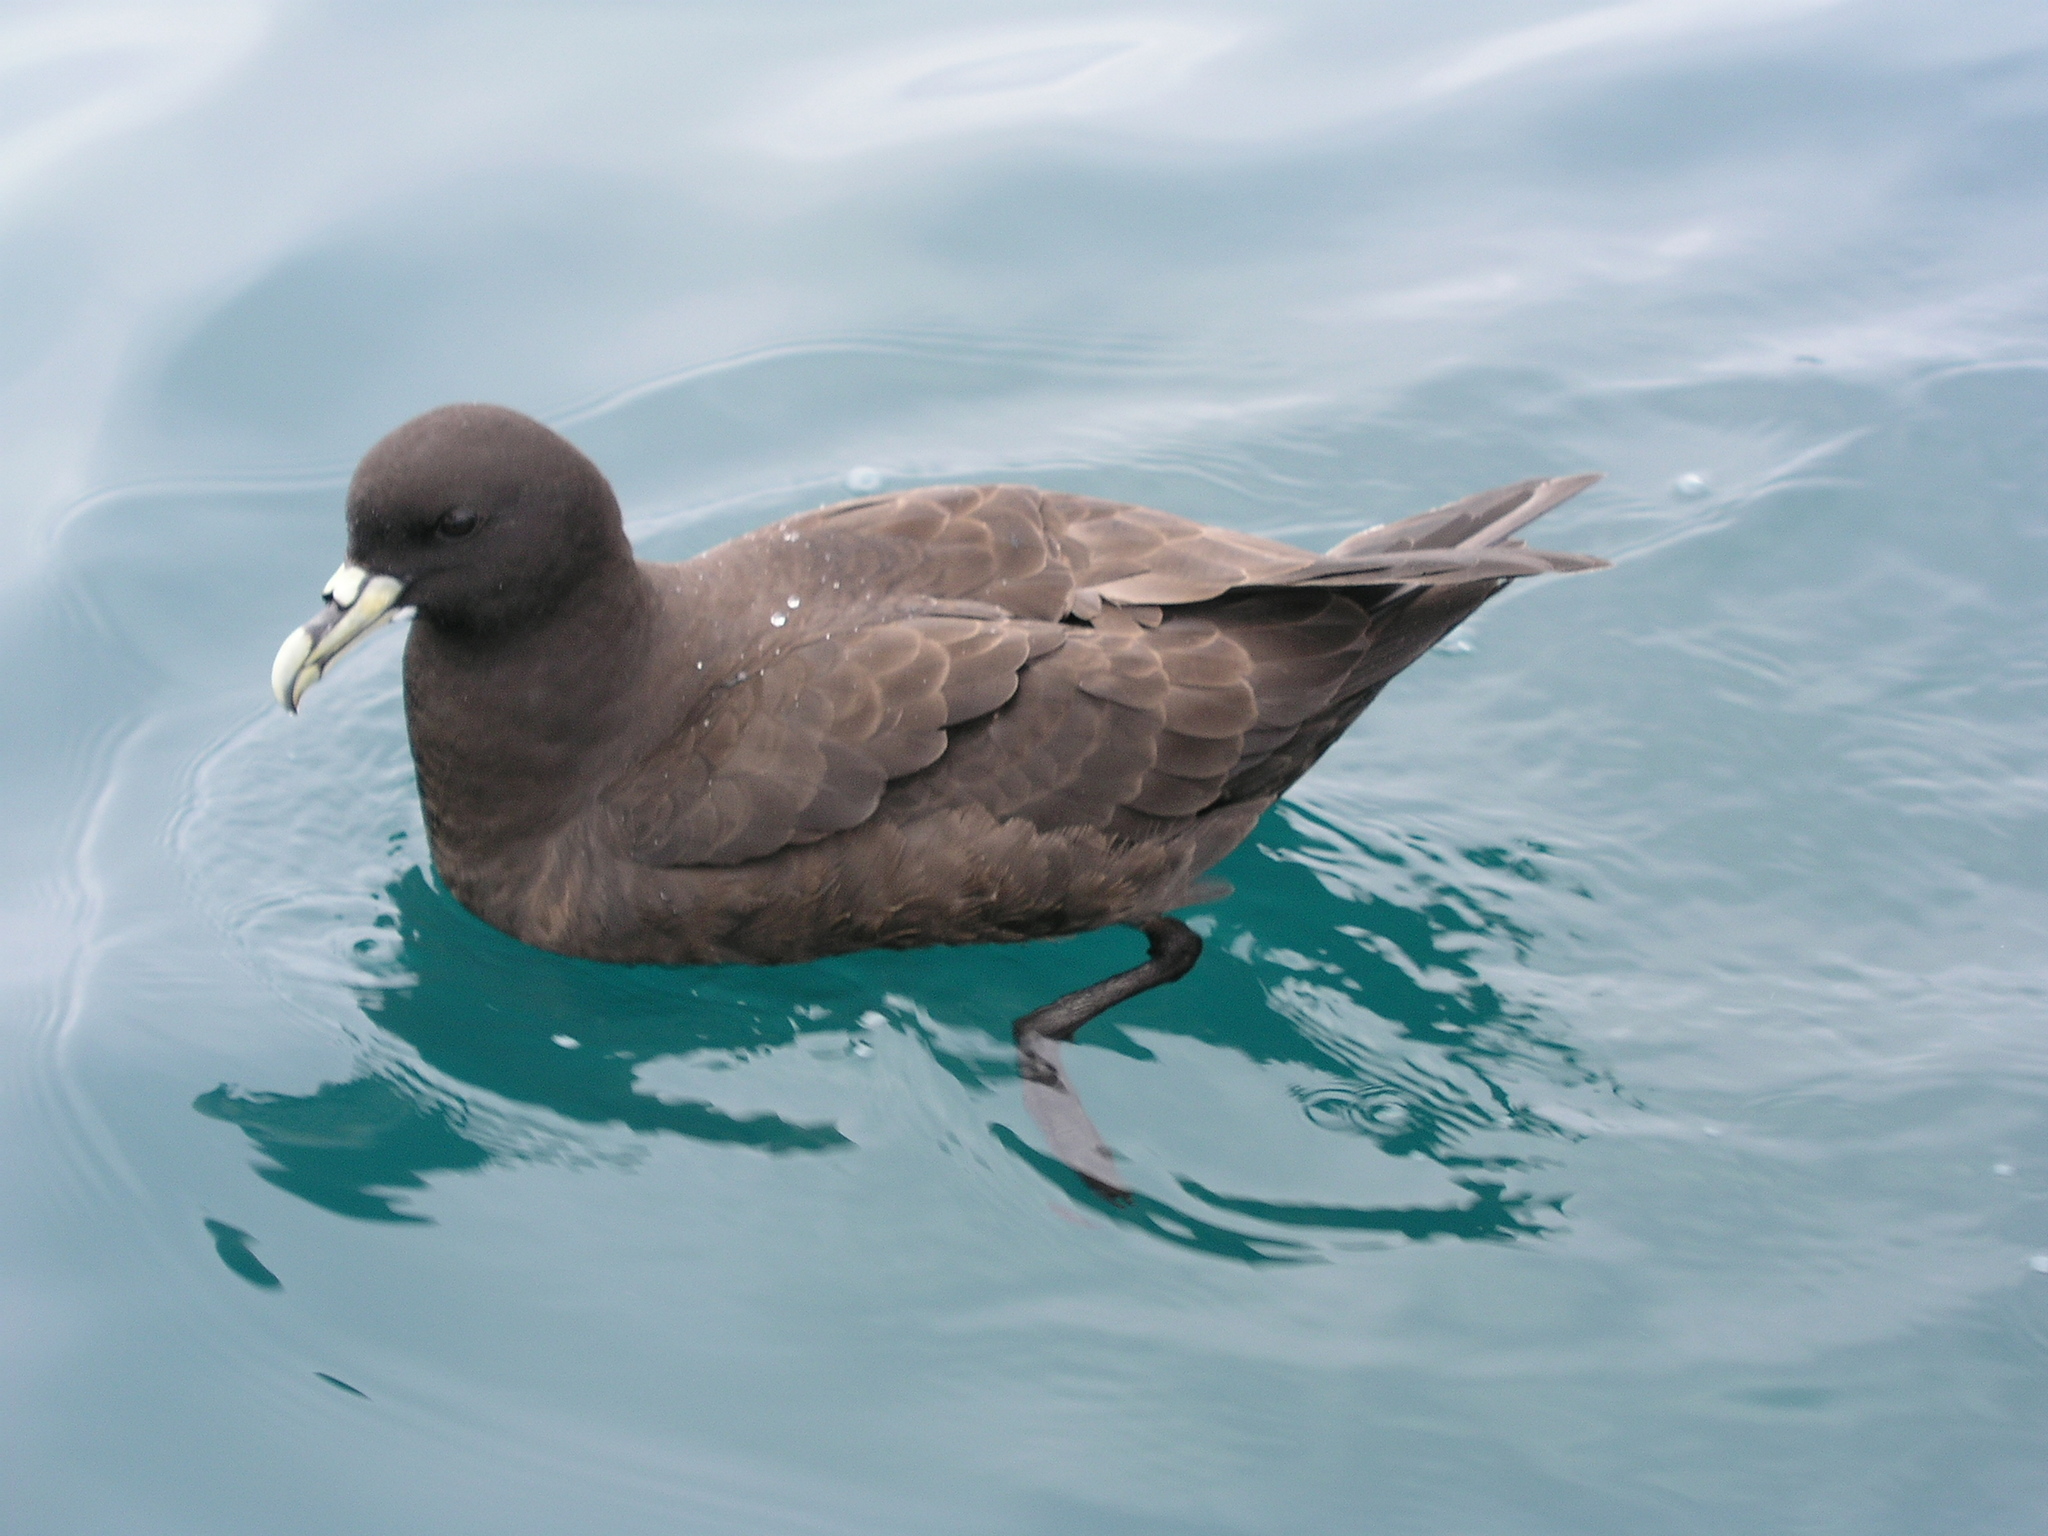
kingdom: Animalia
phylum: Chordata
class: Aves
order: Procellariiformes
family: Procellariidae
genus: Procellaria
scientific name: Procellaria aequinoctialis
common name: White-chinned petrel
